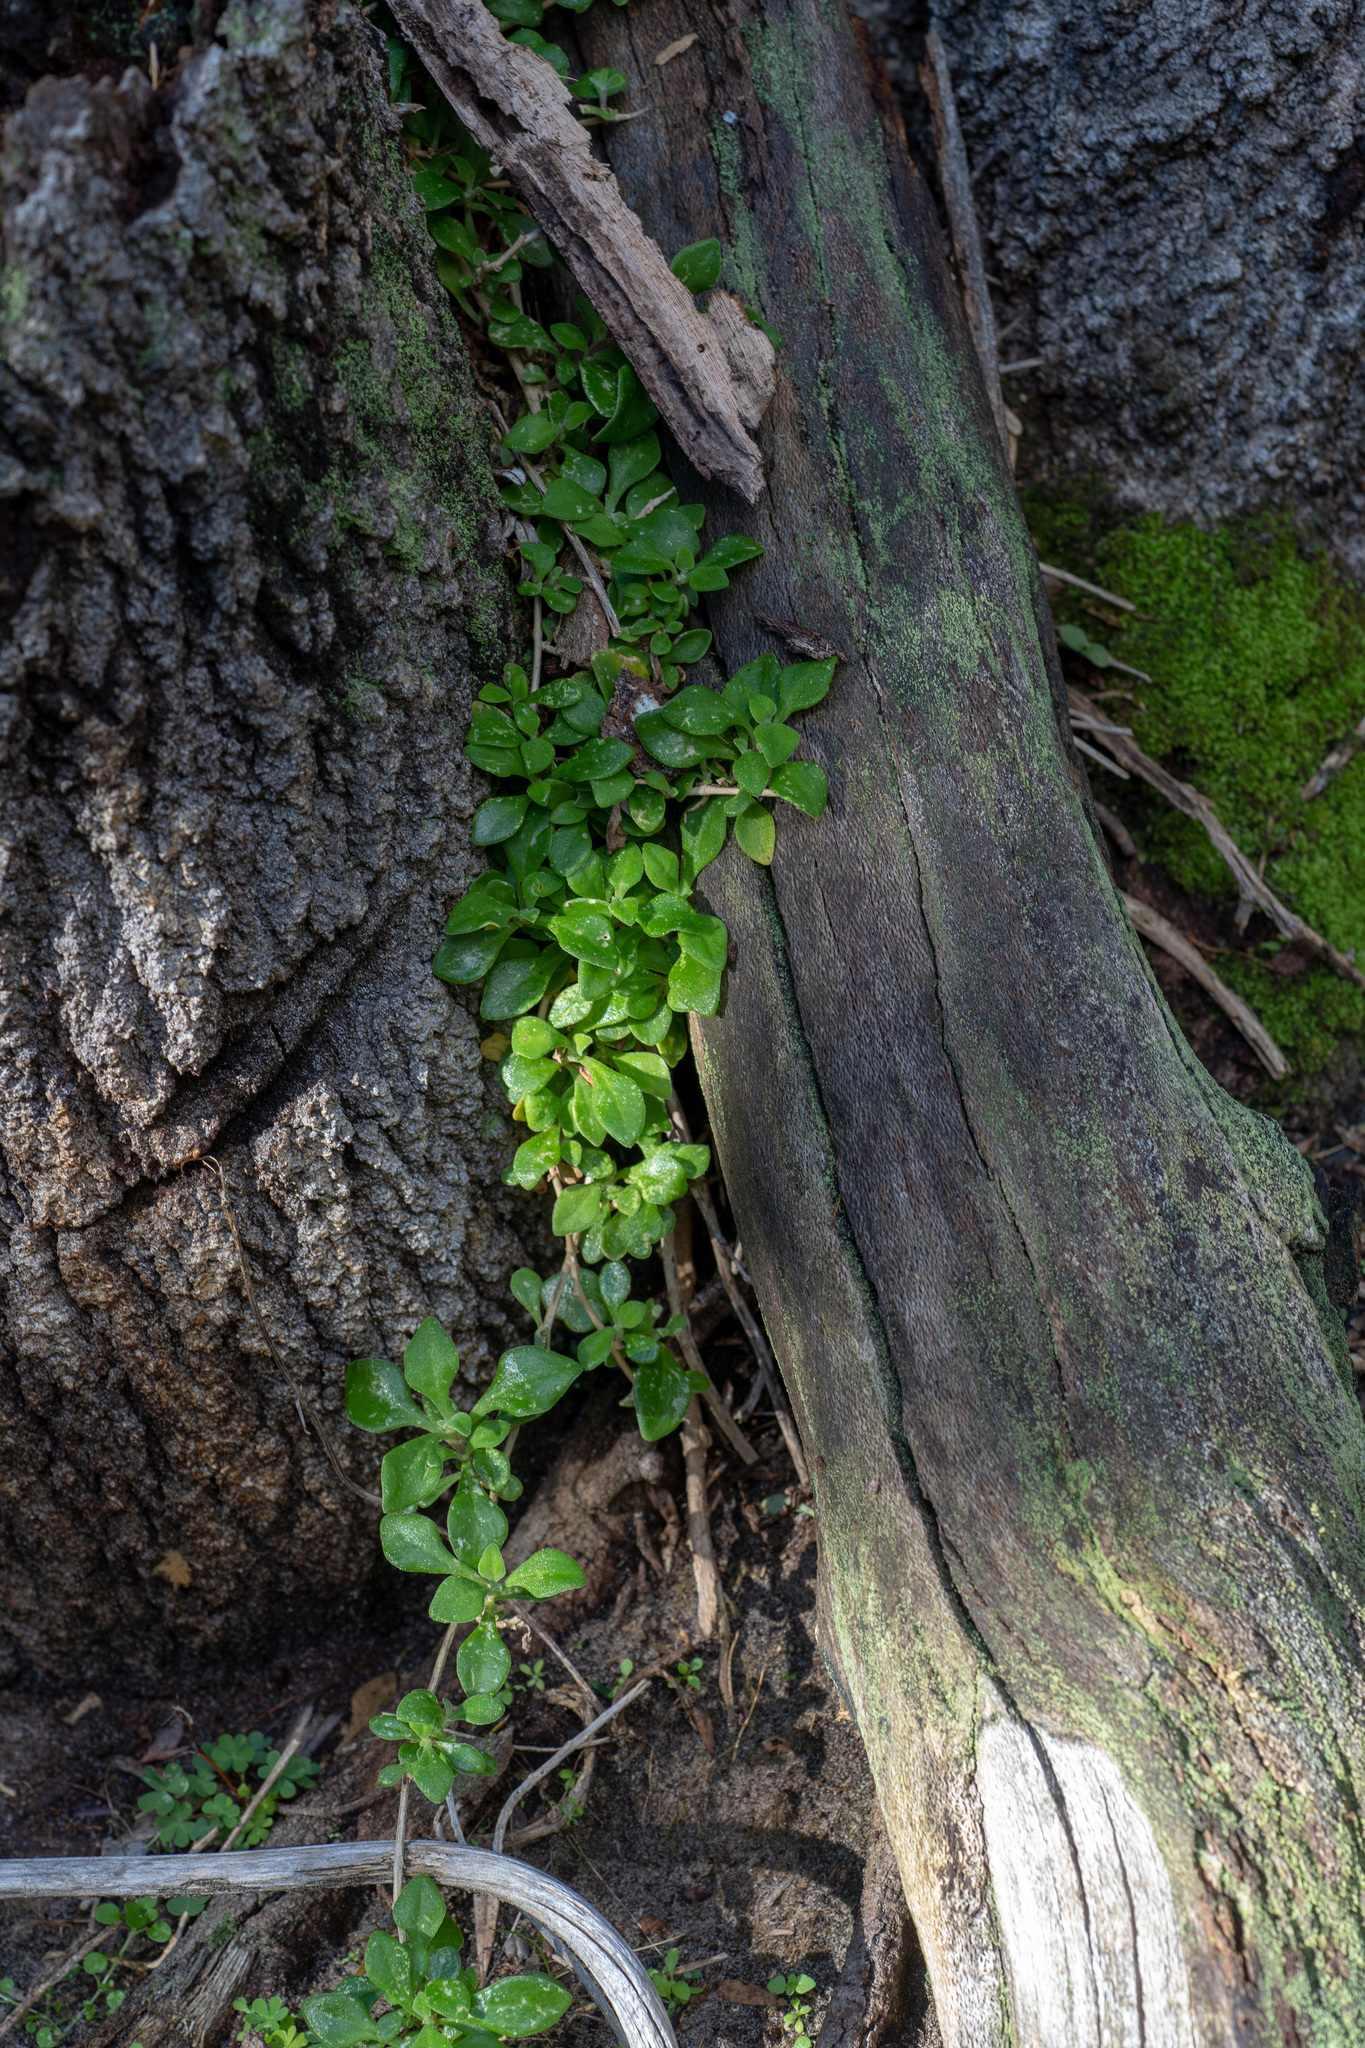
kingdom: Plantae
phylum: Tracheophyta
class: Magnoliopsida
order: Caryophyllales
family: Aizoaceae
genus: Tetragonia
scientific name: Tetragonia tetragonoides
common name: New zealand-spinach
